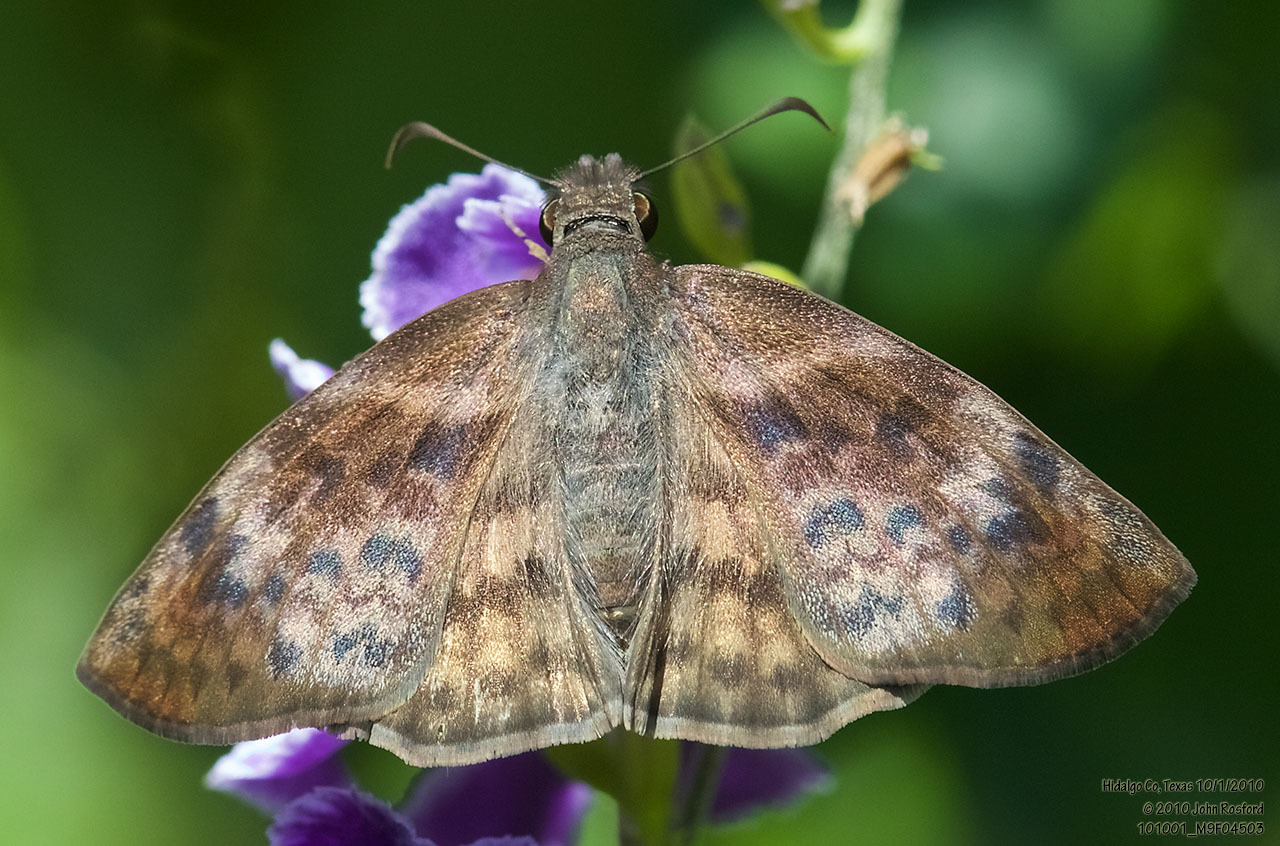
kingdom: Animalia
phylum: Arthropoda
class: Insecta
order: Lepidoptera
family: Hesperiidae
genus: Timochares
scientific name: Timochares ruptifasciata
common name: Brown-banded skipper
